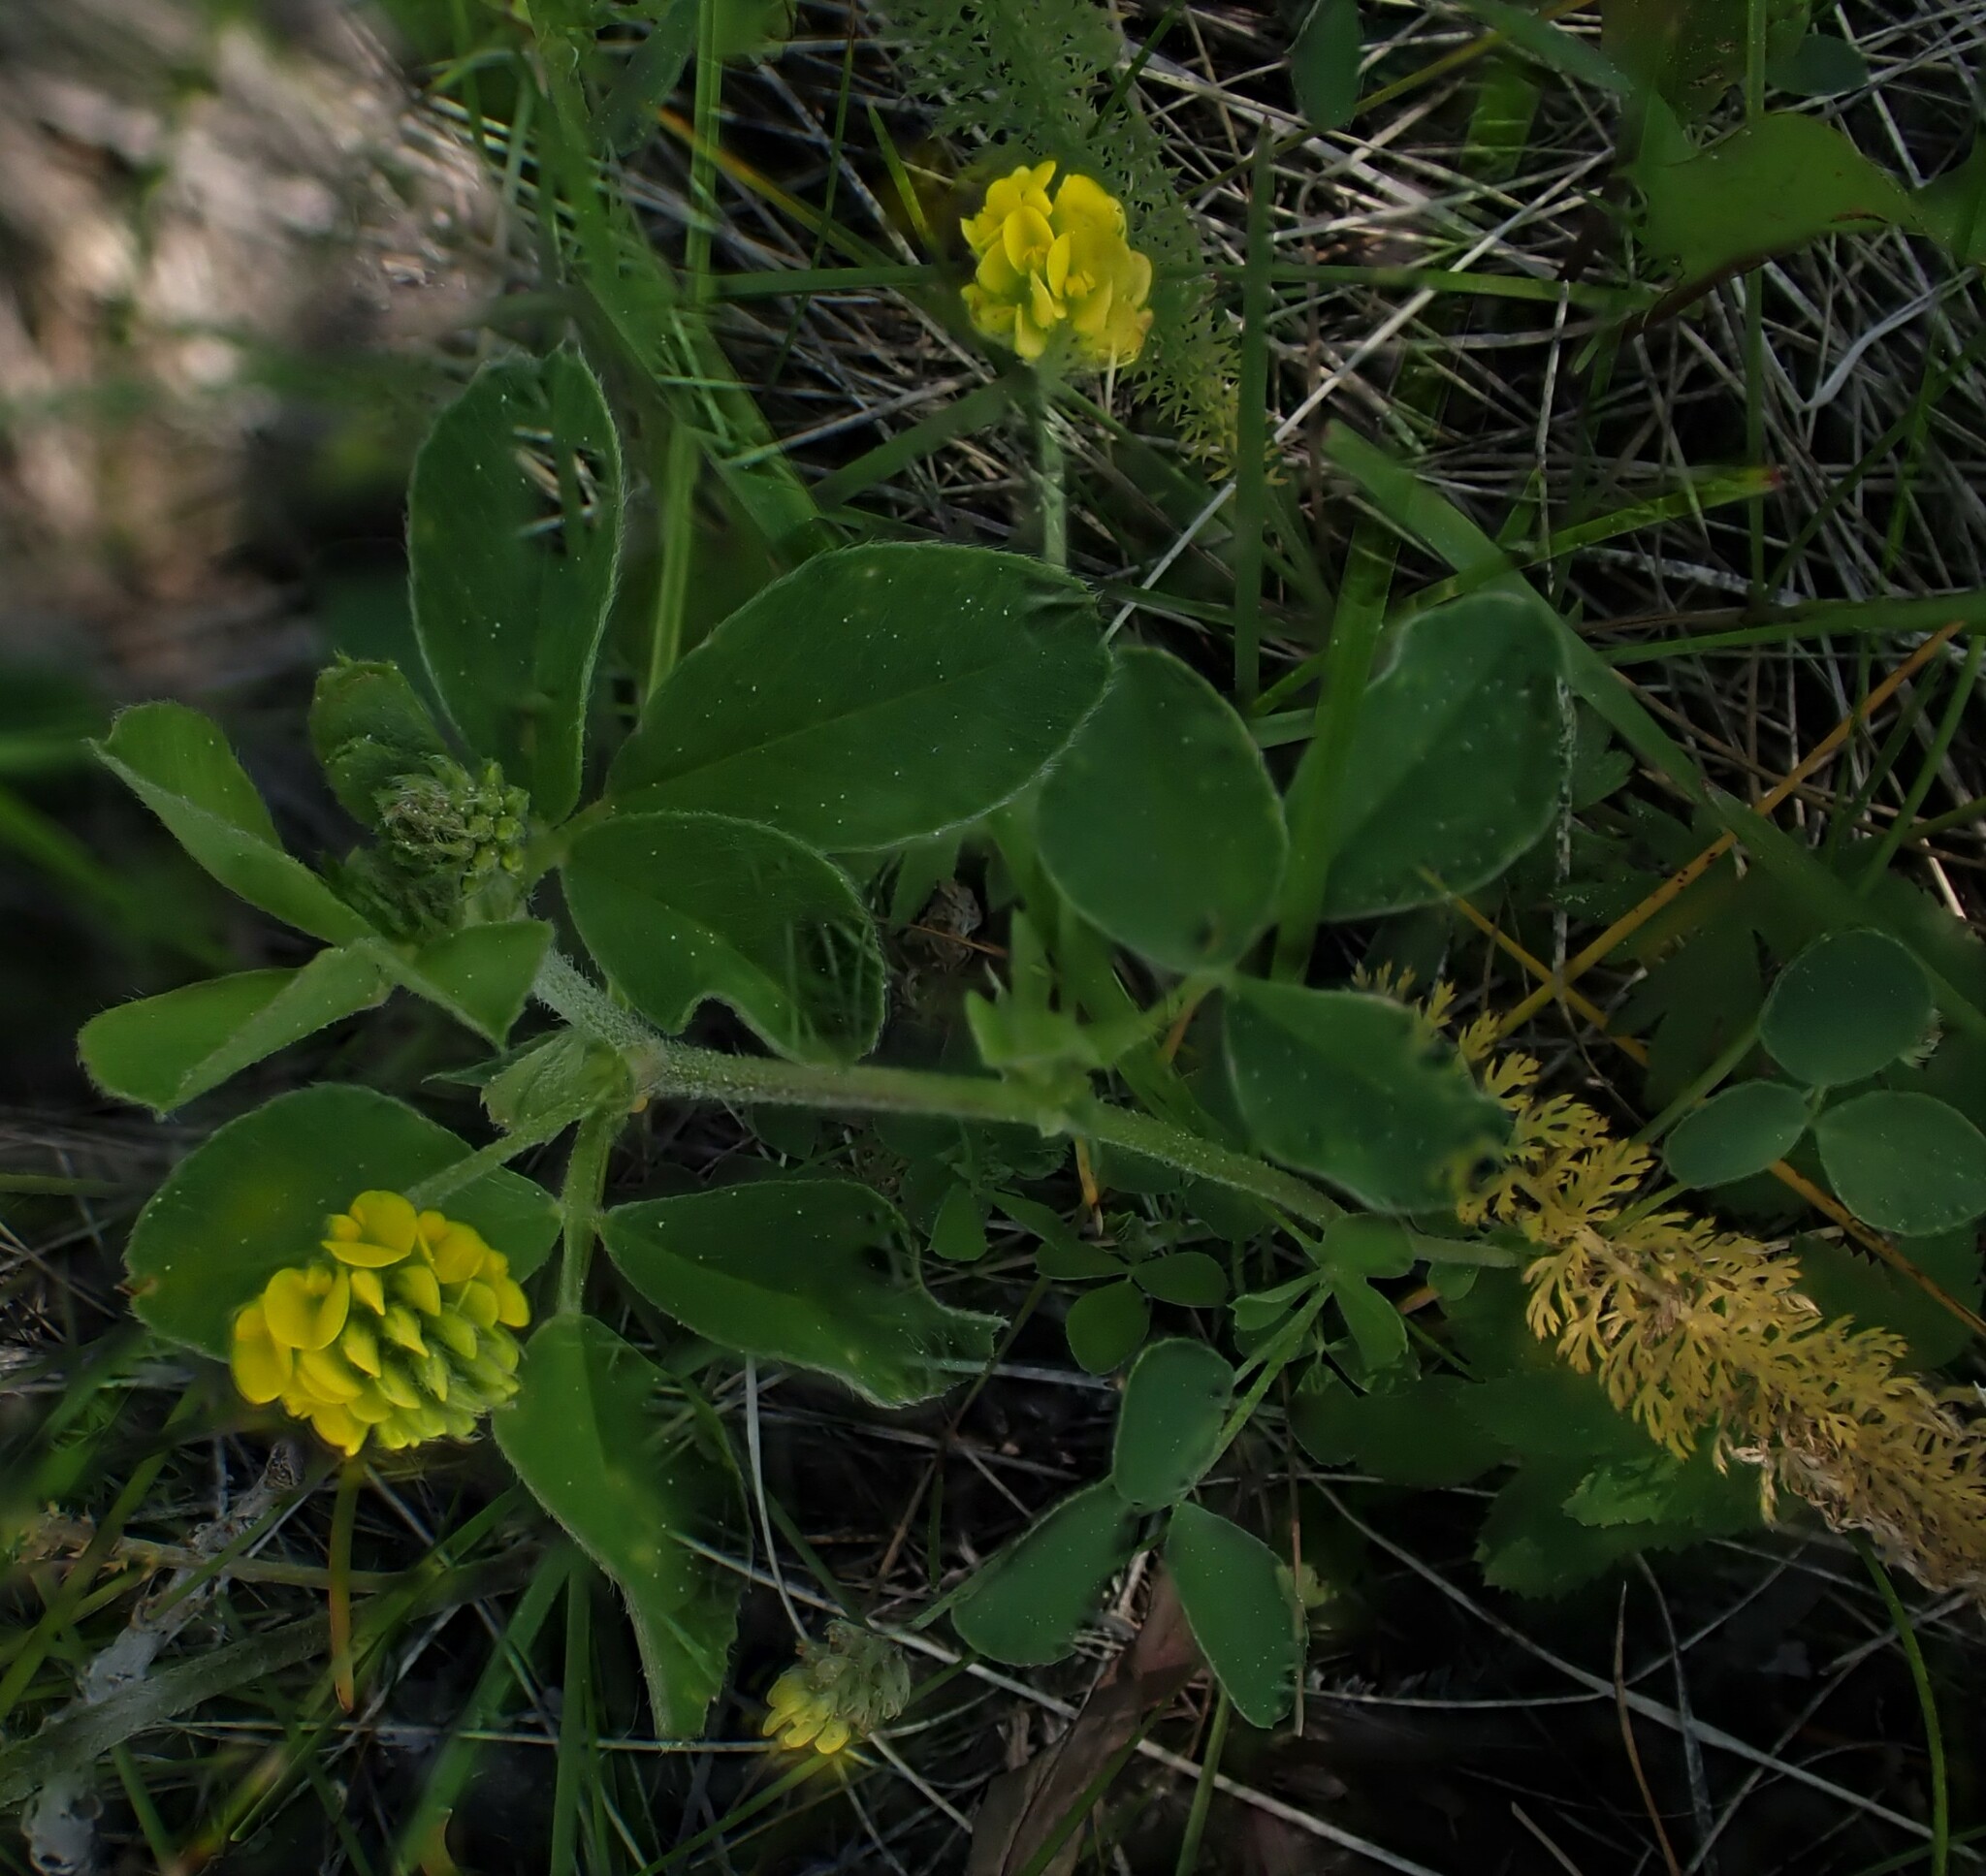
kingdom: Plantae
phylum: Tracheophyta
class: Magnoliopsida
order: Fabales
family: Fabaceae
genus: Medicago
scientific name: Medicago lupulina
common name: Black medick
